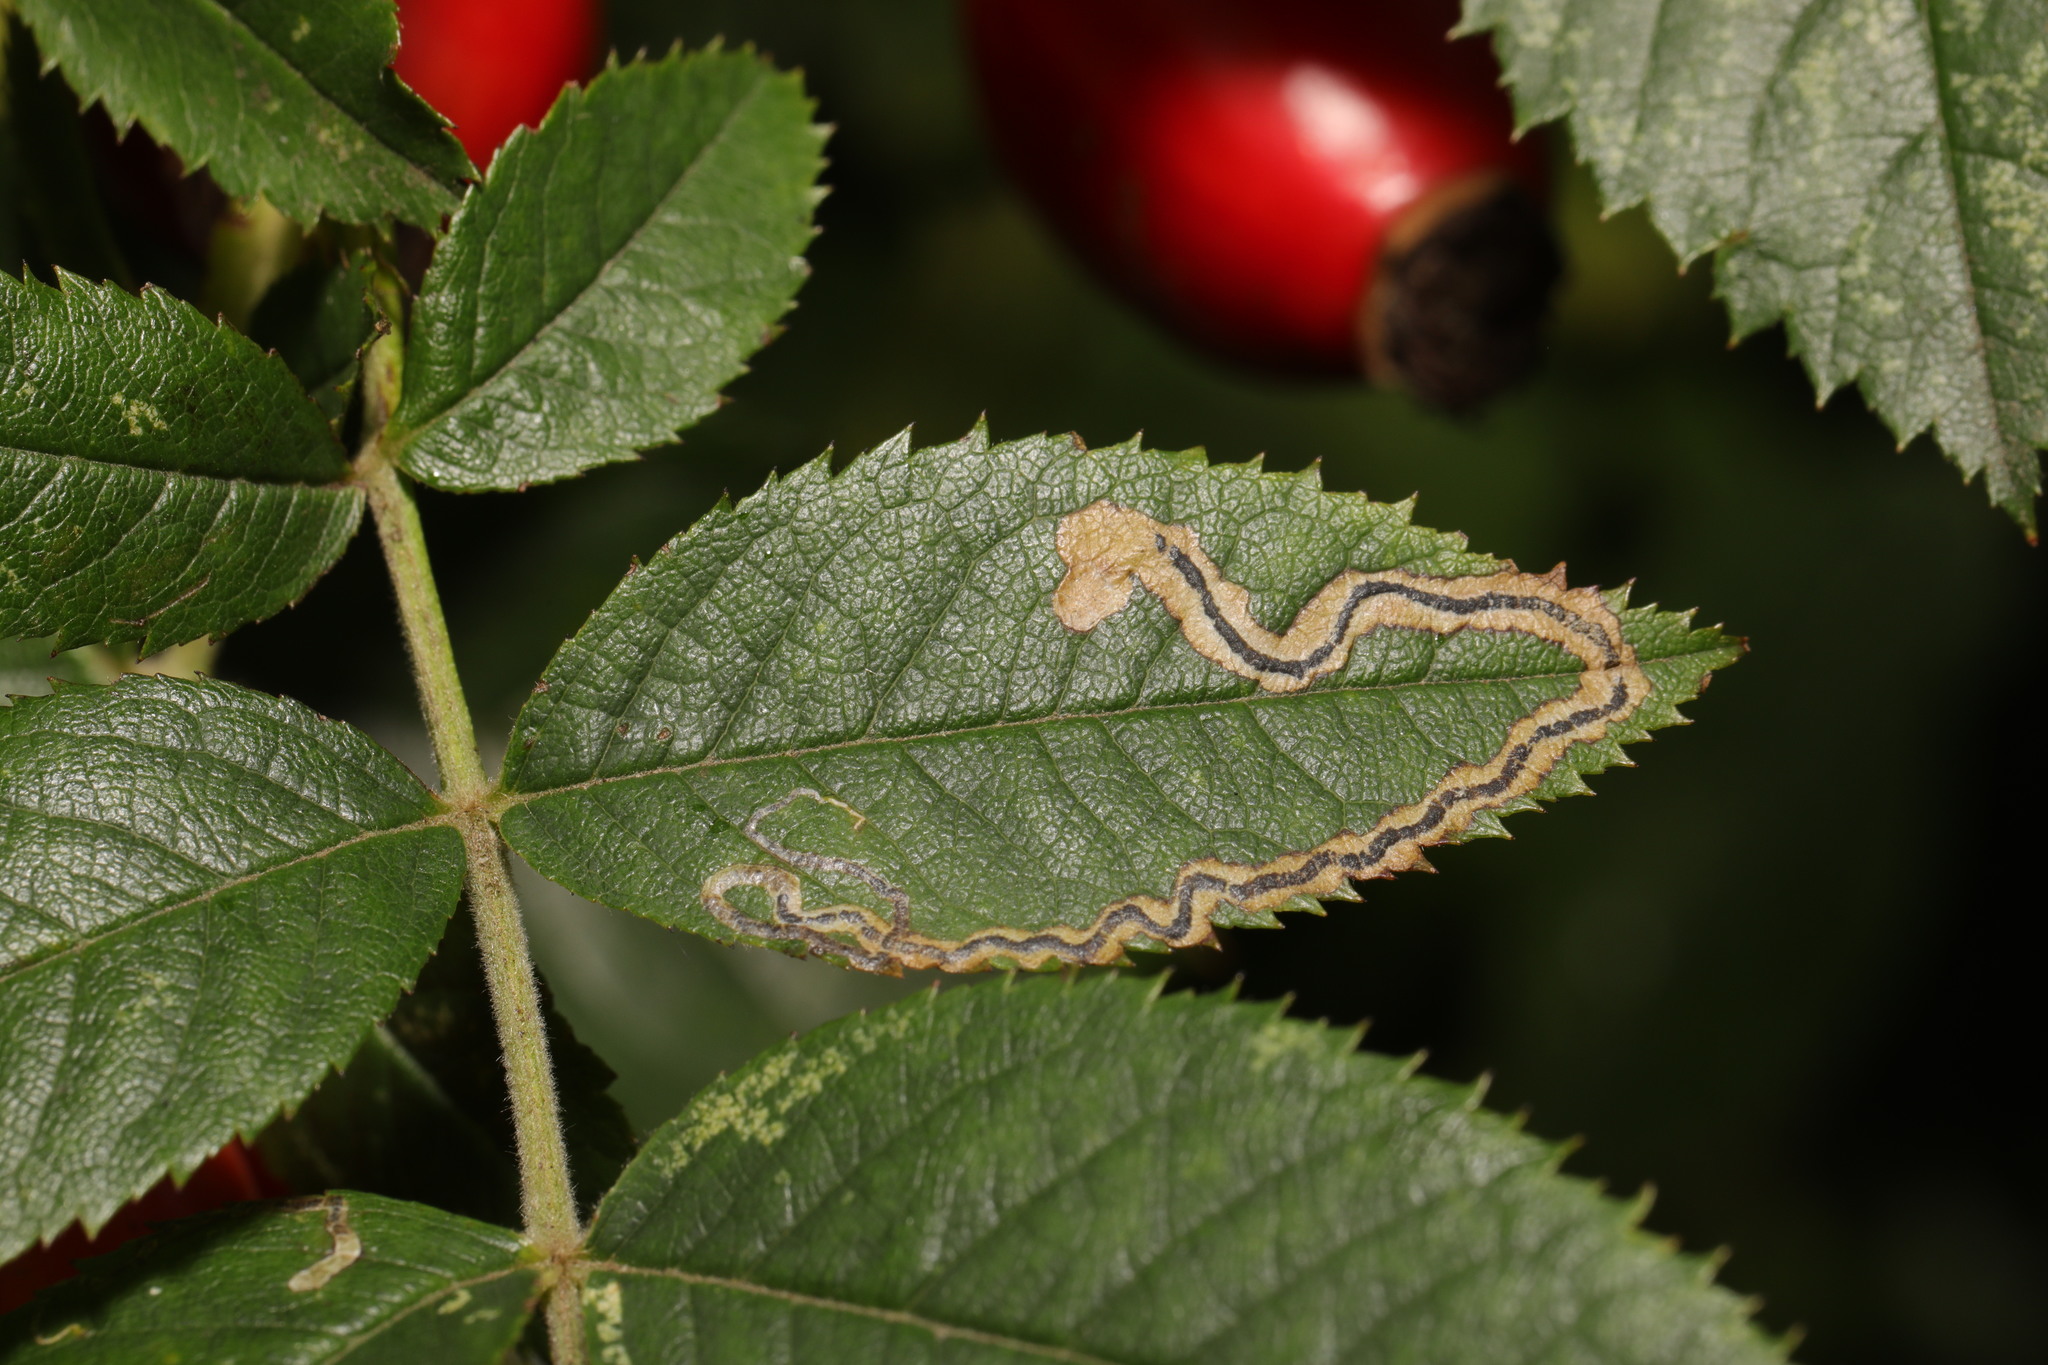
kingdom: Animalia
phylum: Arthropoda
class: Insecta
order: Lepidoptera
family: Nepticulidae
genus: Stigmella
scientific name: Stigmella anomalella
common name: Rose leaf-miner
